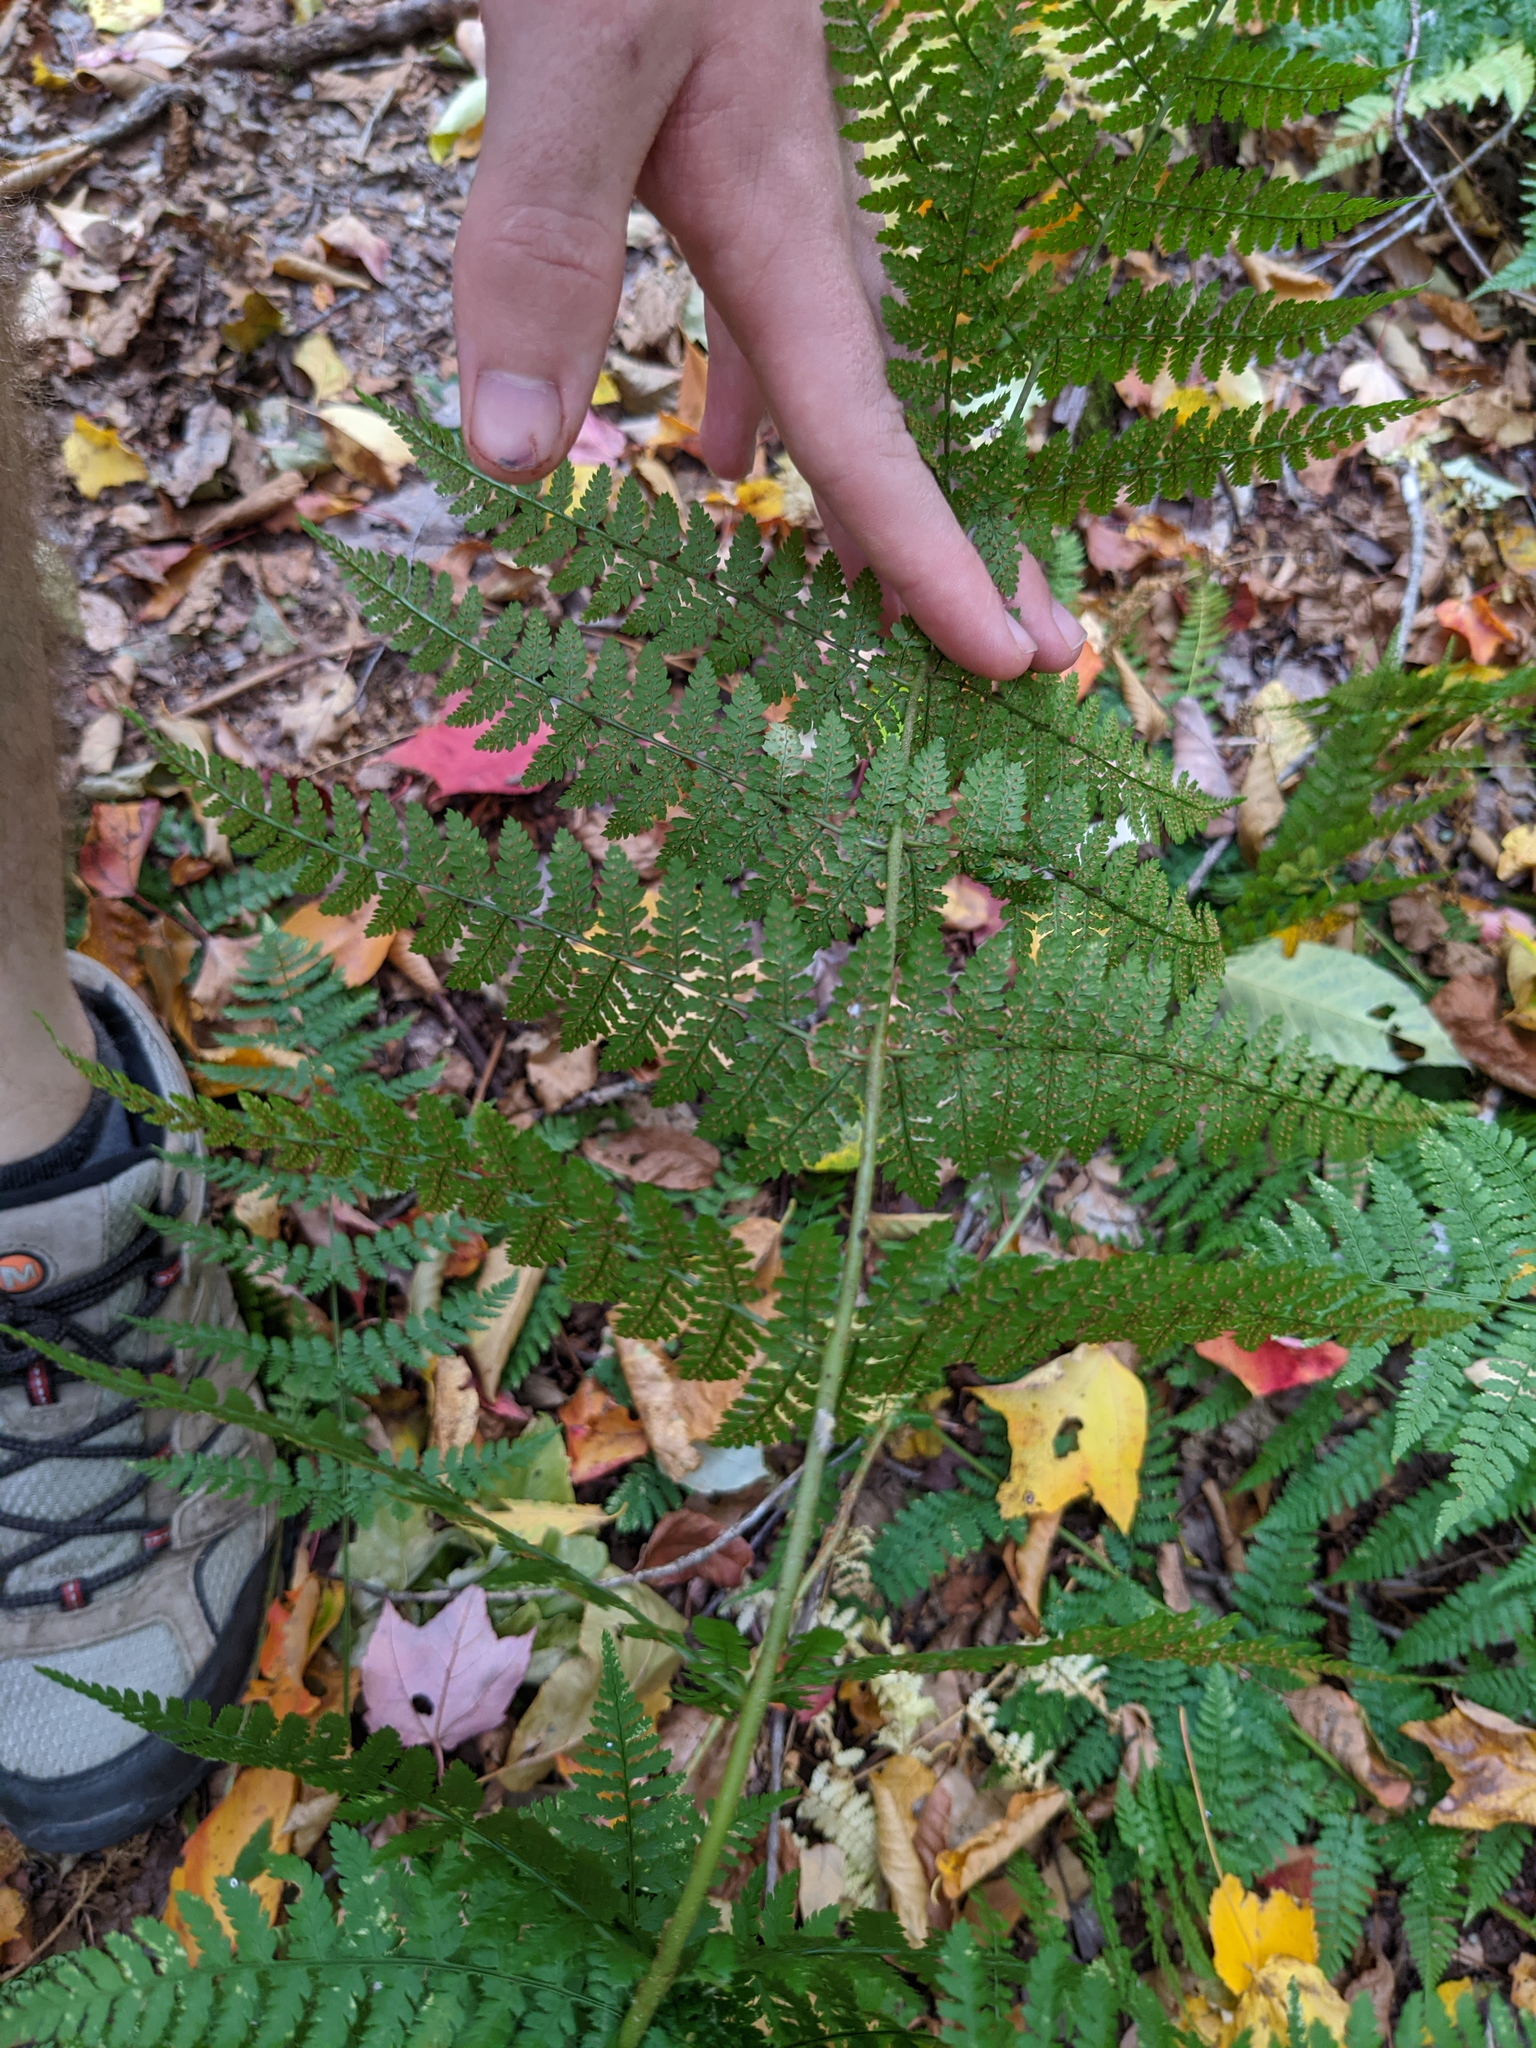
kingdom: Plantae
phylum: Tracheophyta
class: Polypodiopsida
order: Polypodiales
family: Dryopteridaceae
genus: Dryopteris
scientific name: Dryopteris intermedia
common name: Evergreen wood fern
